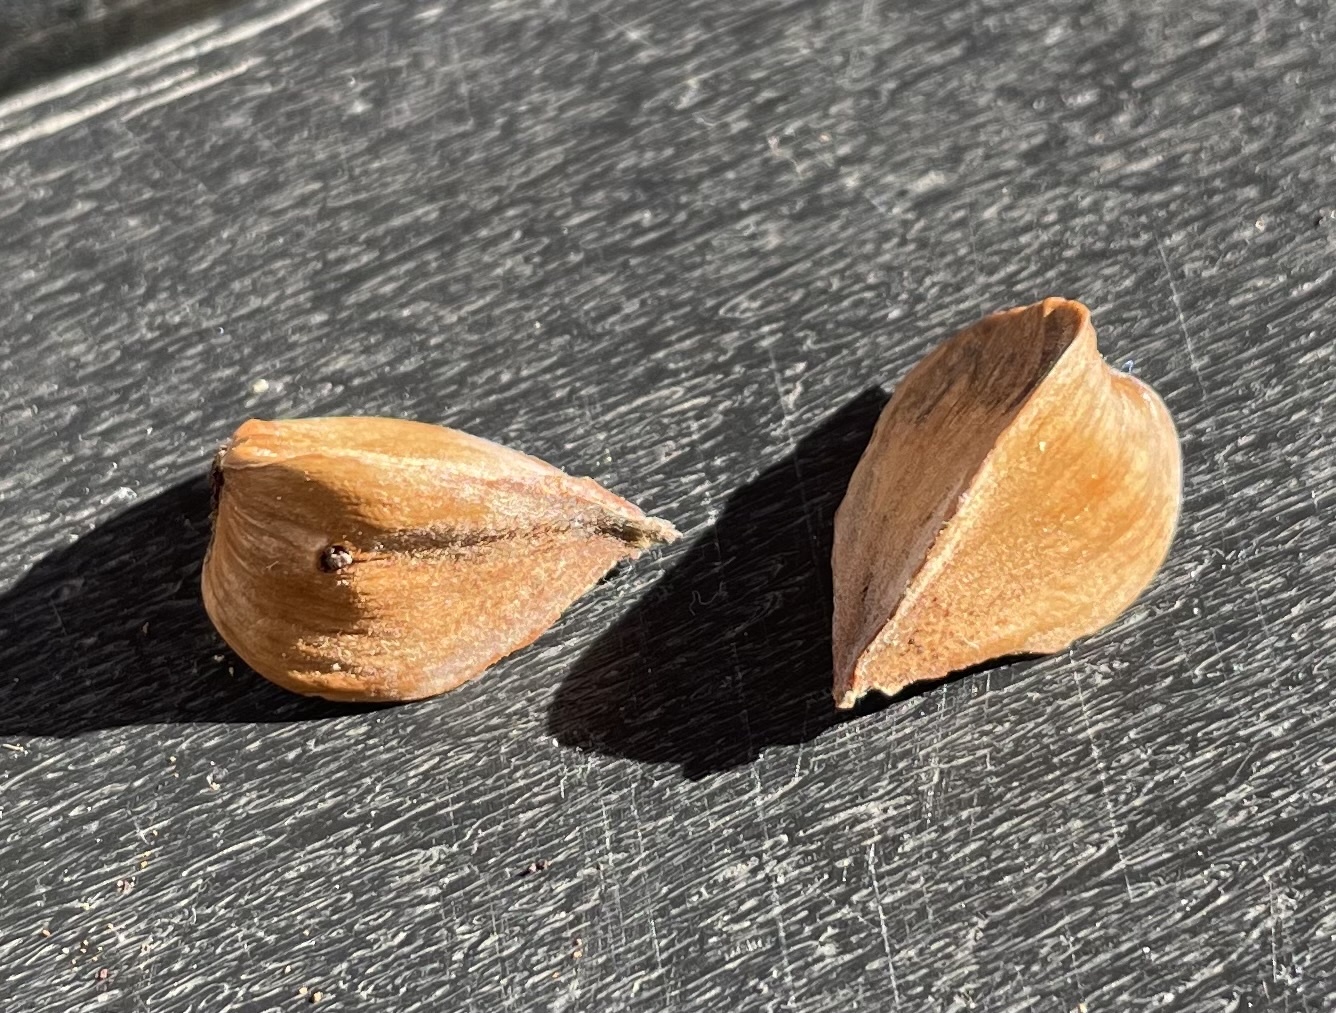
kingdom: Plantae
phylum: Tracheophyta
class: Magnoliopsida
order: Fagales
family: Fagaceae
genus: Fagus
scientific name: Fagus grandifolia
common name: American beech
